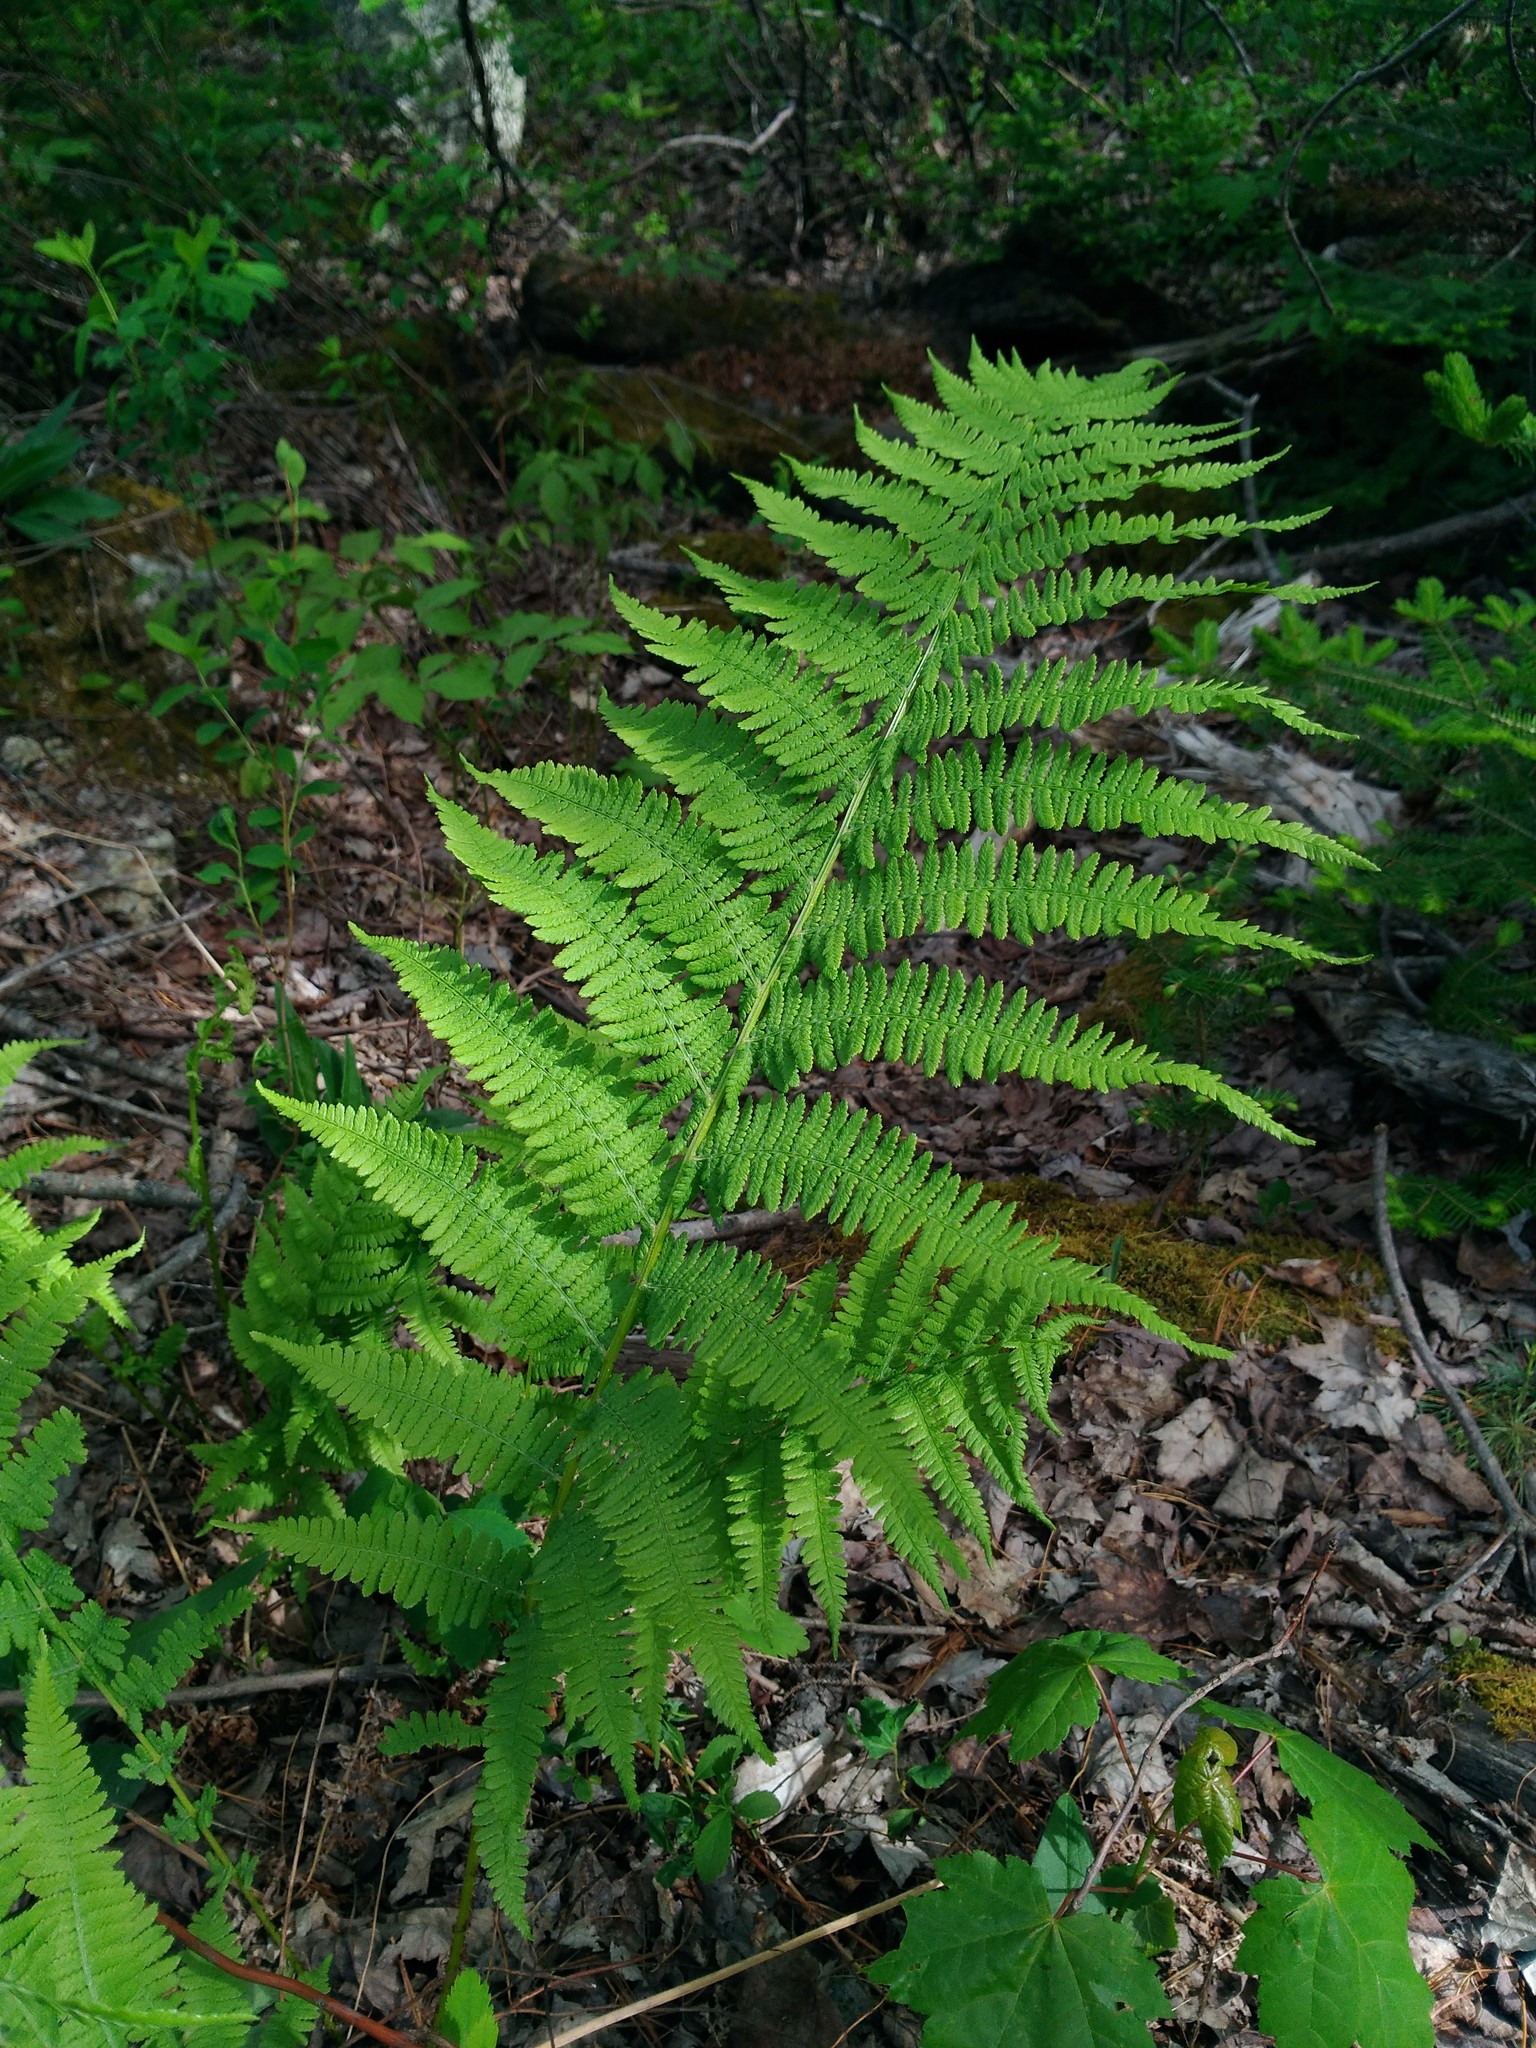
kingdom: Plantae
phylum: Tracheophyta
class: Polypodiopsida
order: Polypodiales
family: Athyriaceae
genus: Athyrium
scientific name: Athyrium angustum
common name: Northern lady fern
